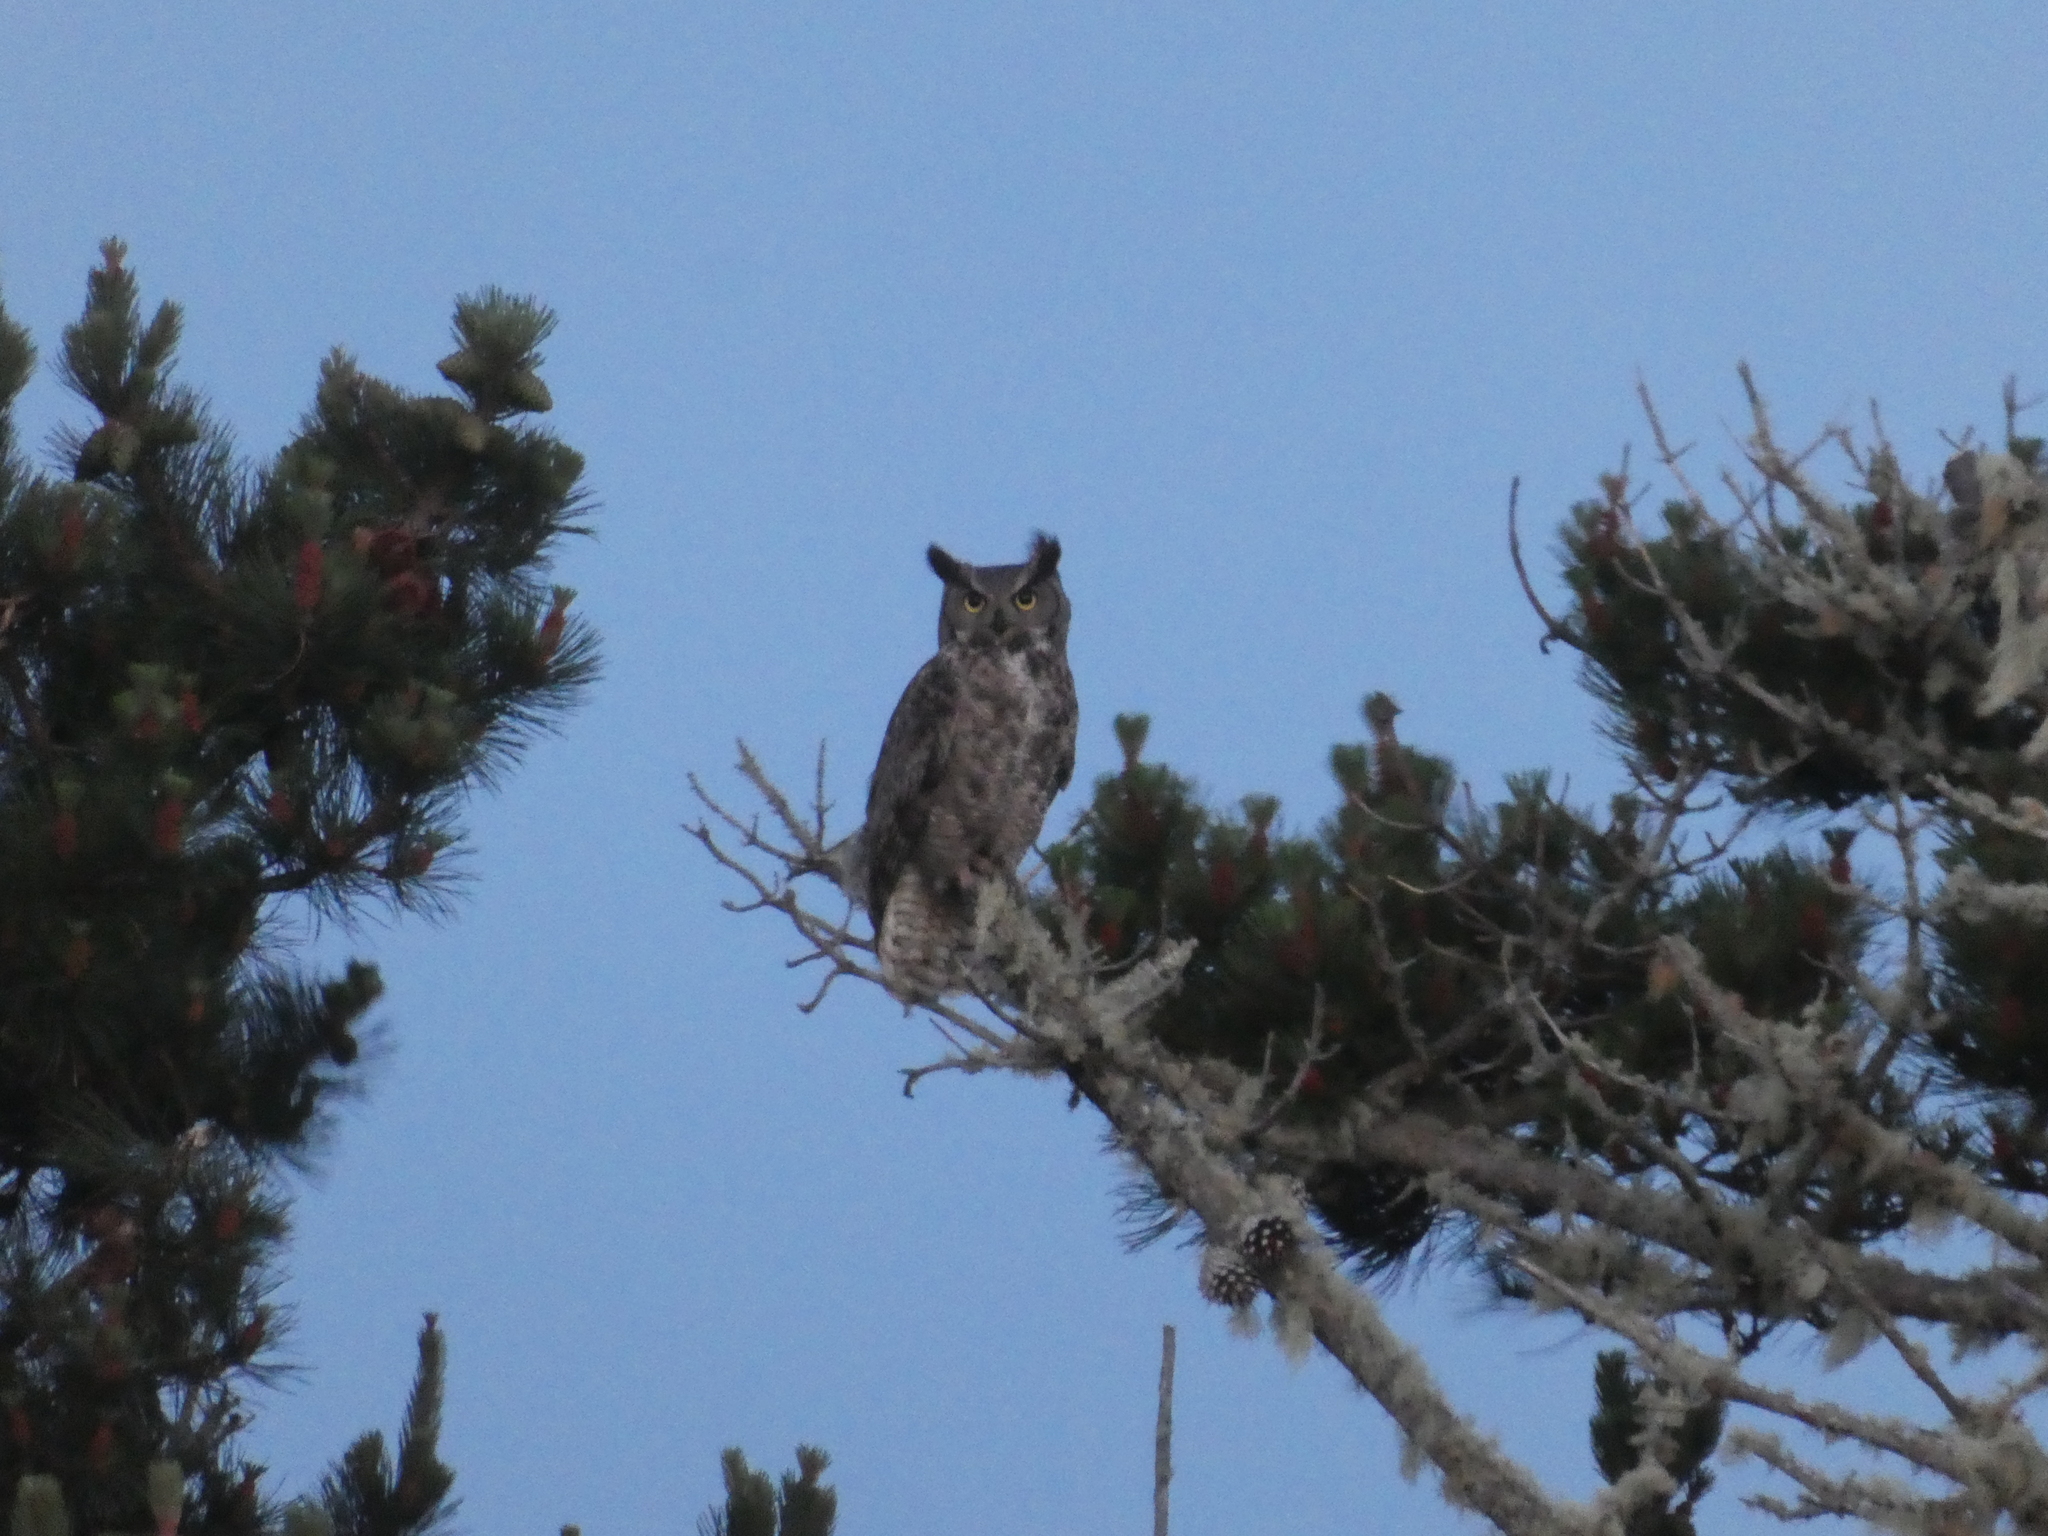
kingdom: Animalia
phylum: Chordata
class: Aves
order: Strigiformes
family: Strigidae
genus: Bubo
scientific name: Bubo virginianus
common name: Great horned owl
